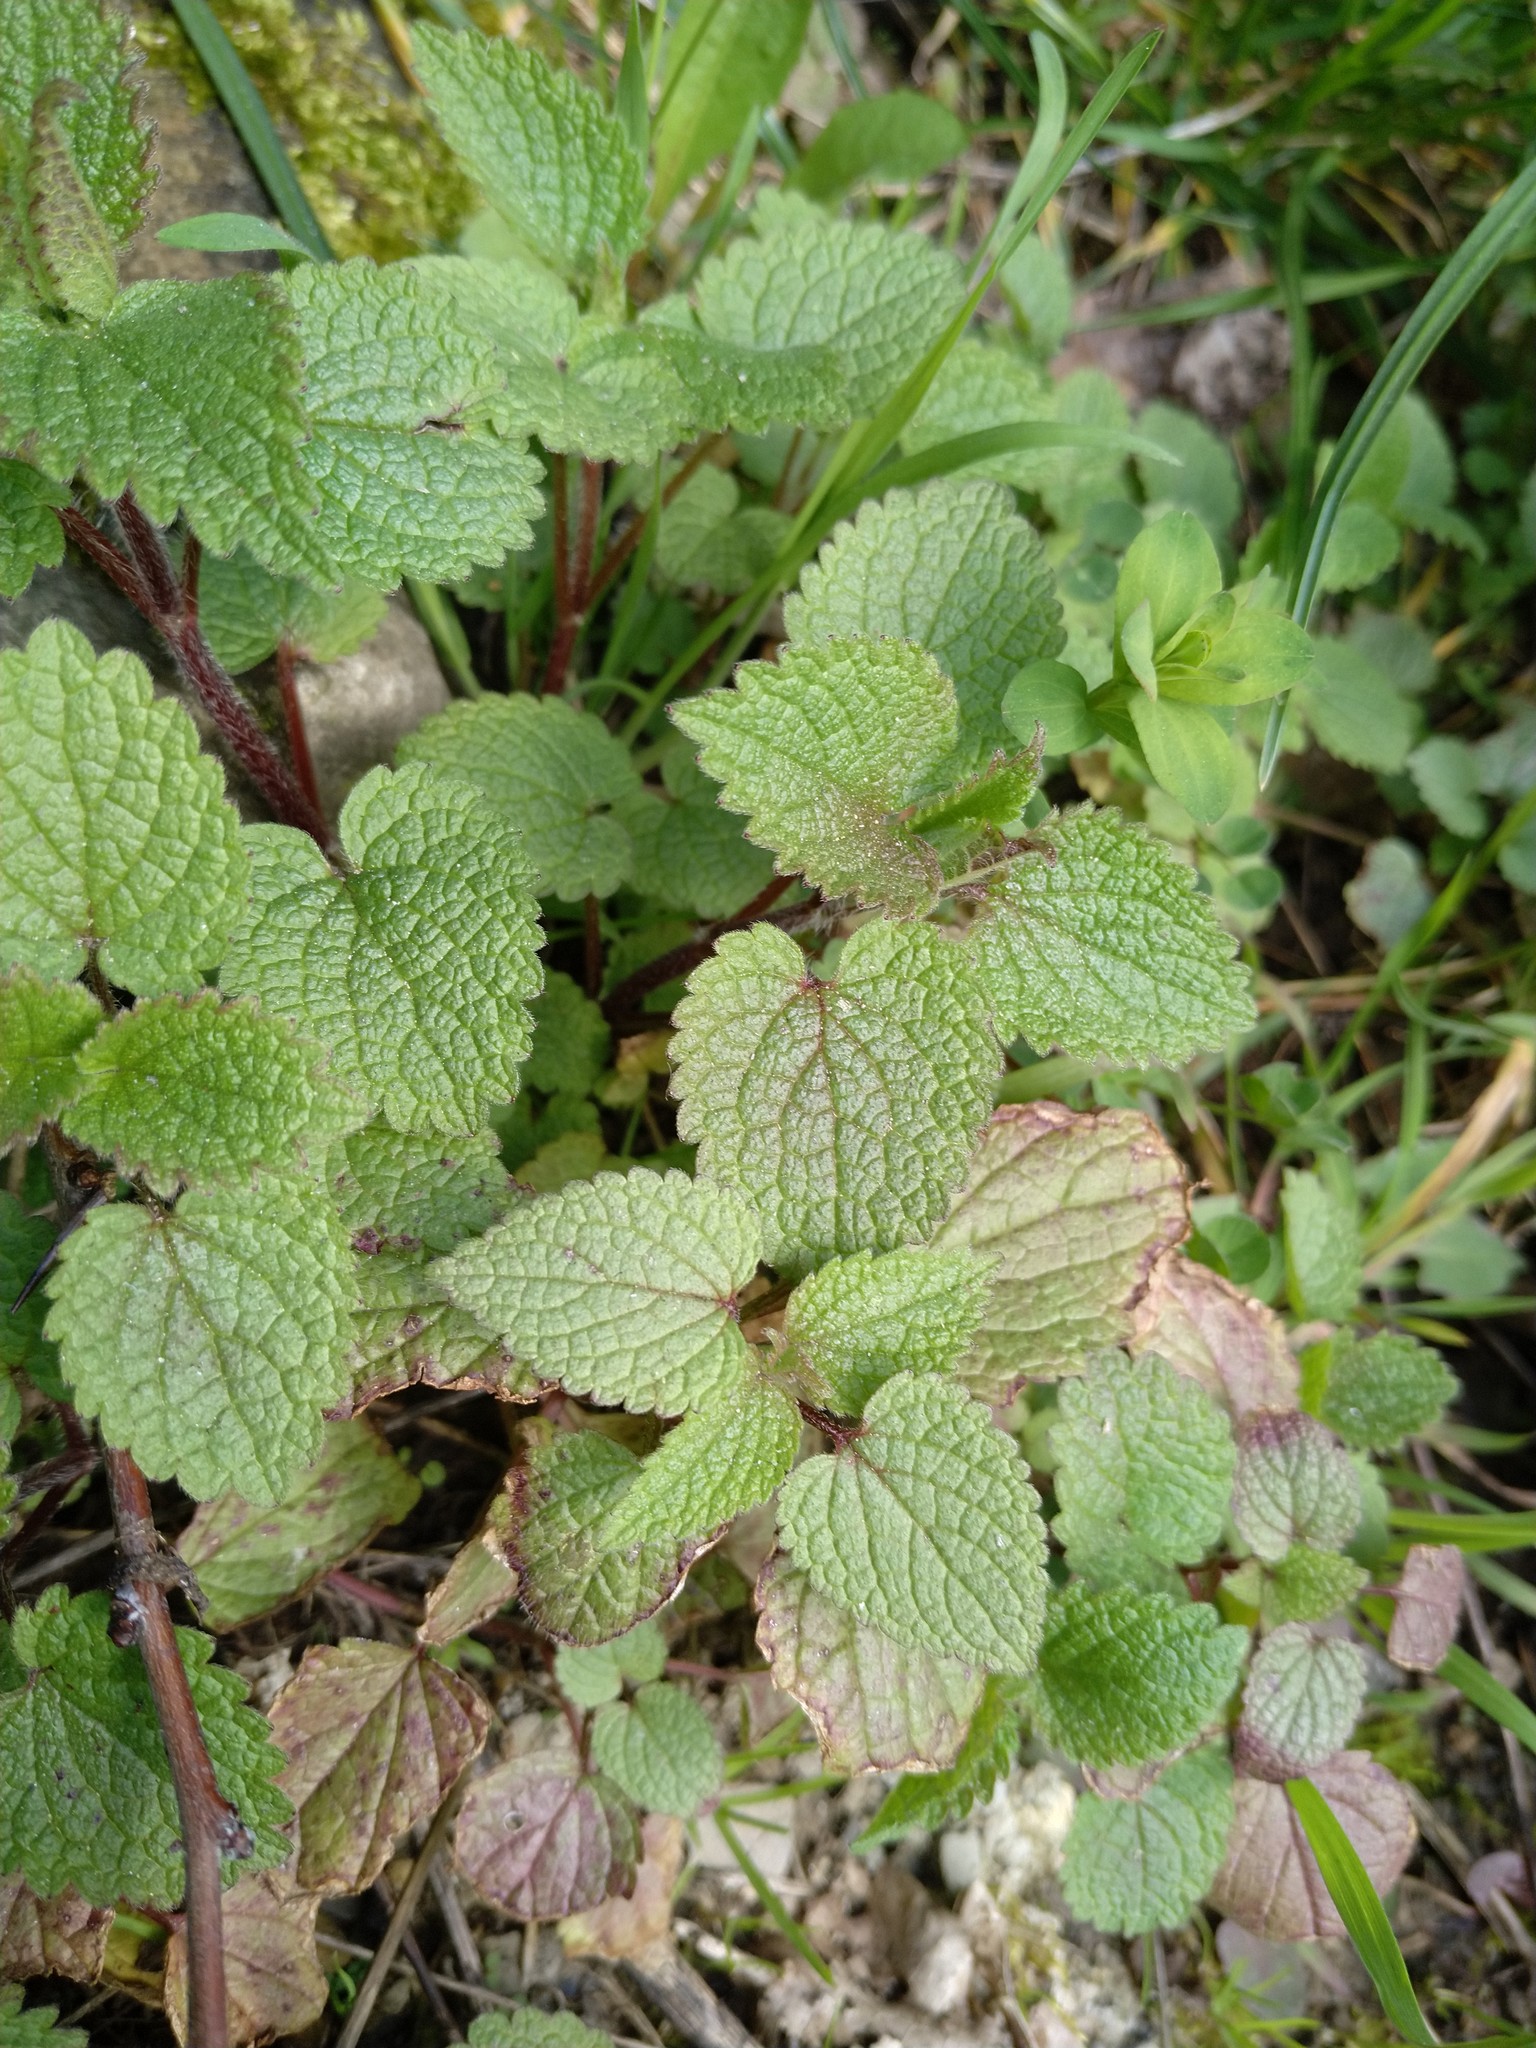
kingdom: Plantae
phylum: Tracheophyta
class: Magnoliopsida
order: Lamiales
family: Lamiaceae
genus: Lamium
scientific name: Lamium purpureum
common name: Red dead-nettle
